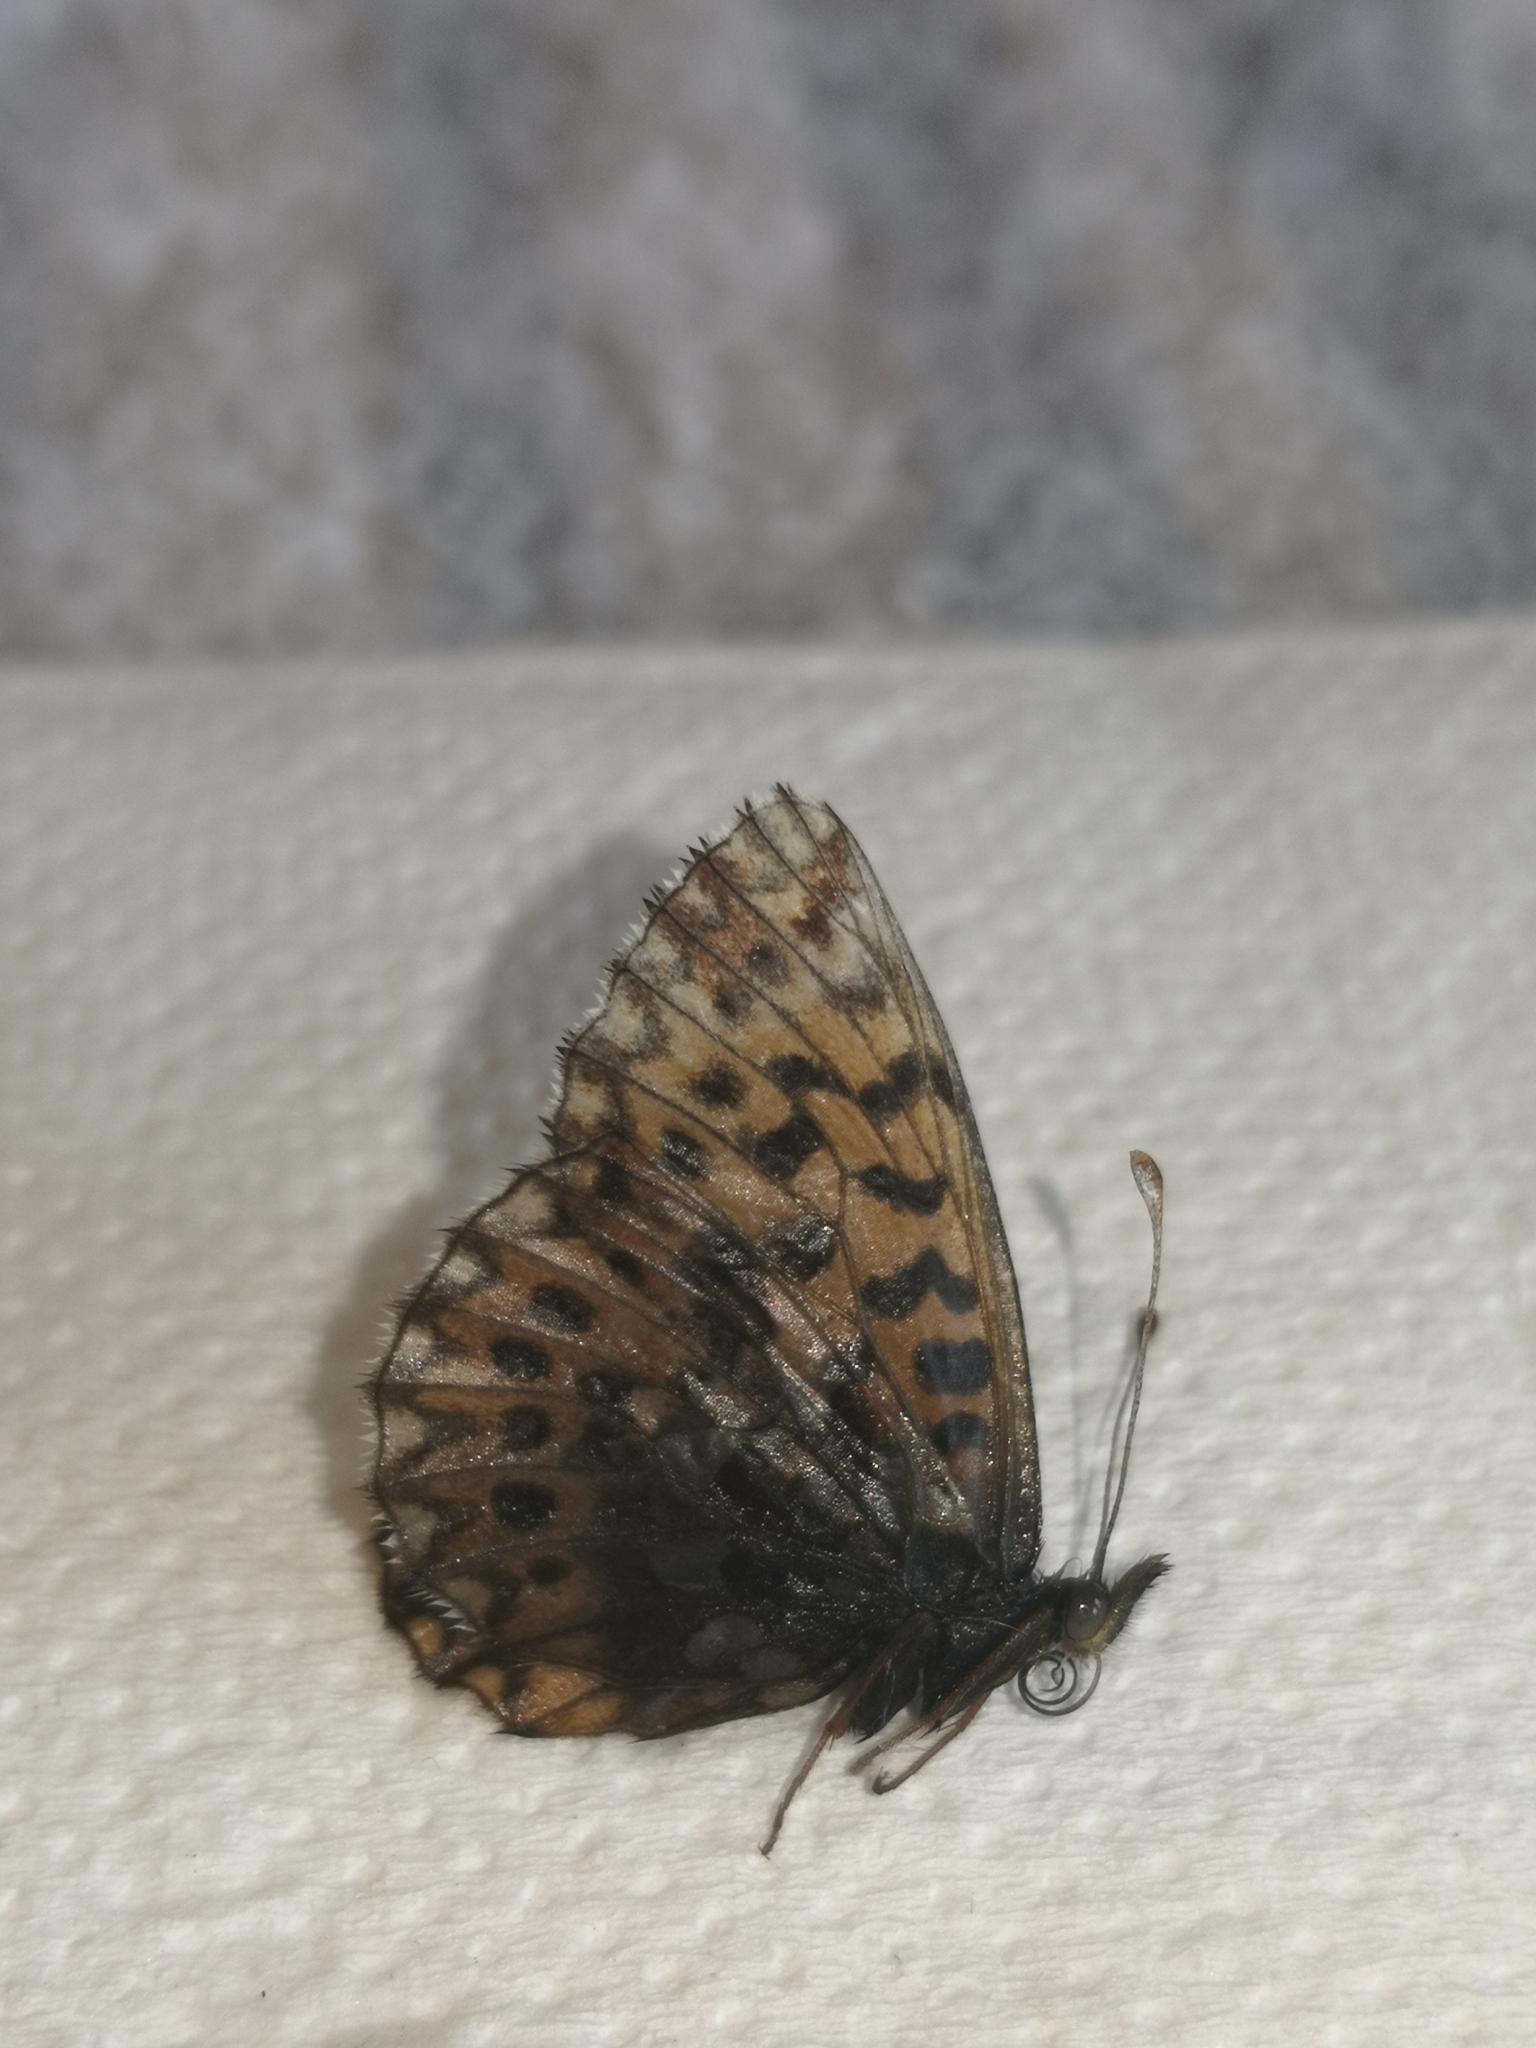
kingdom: Animalia
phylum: Arthropoda
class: Insecta
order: Lepidoptera
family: Nymphalidae
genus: Boloria
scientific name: Boloria dia
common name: Weaver's fritillary
